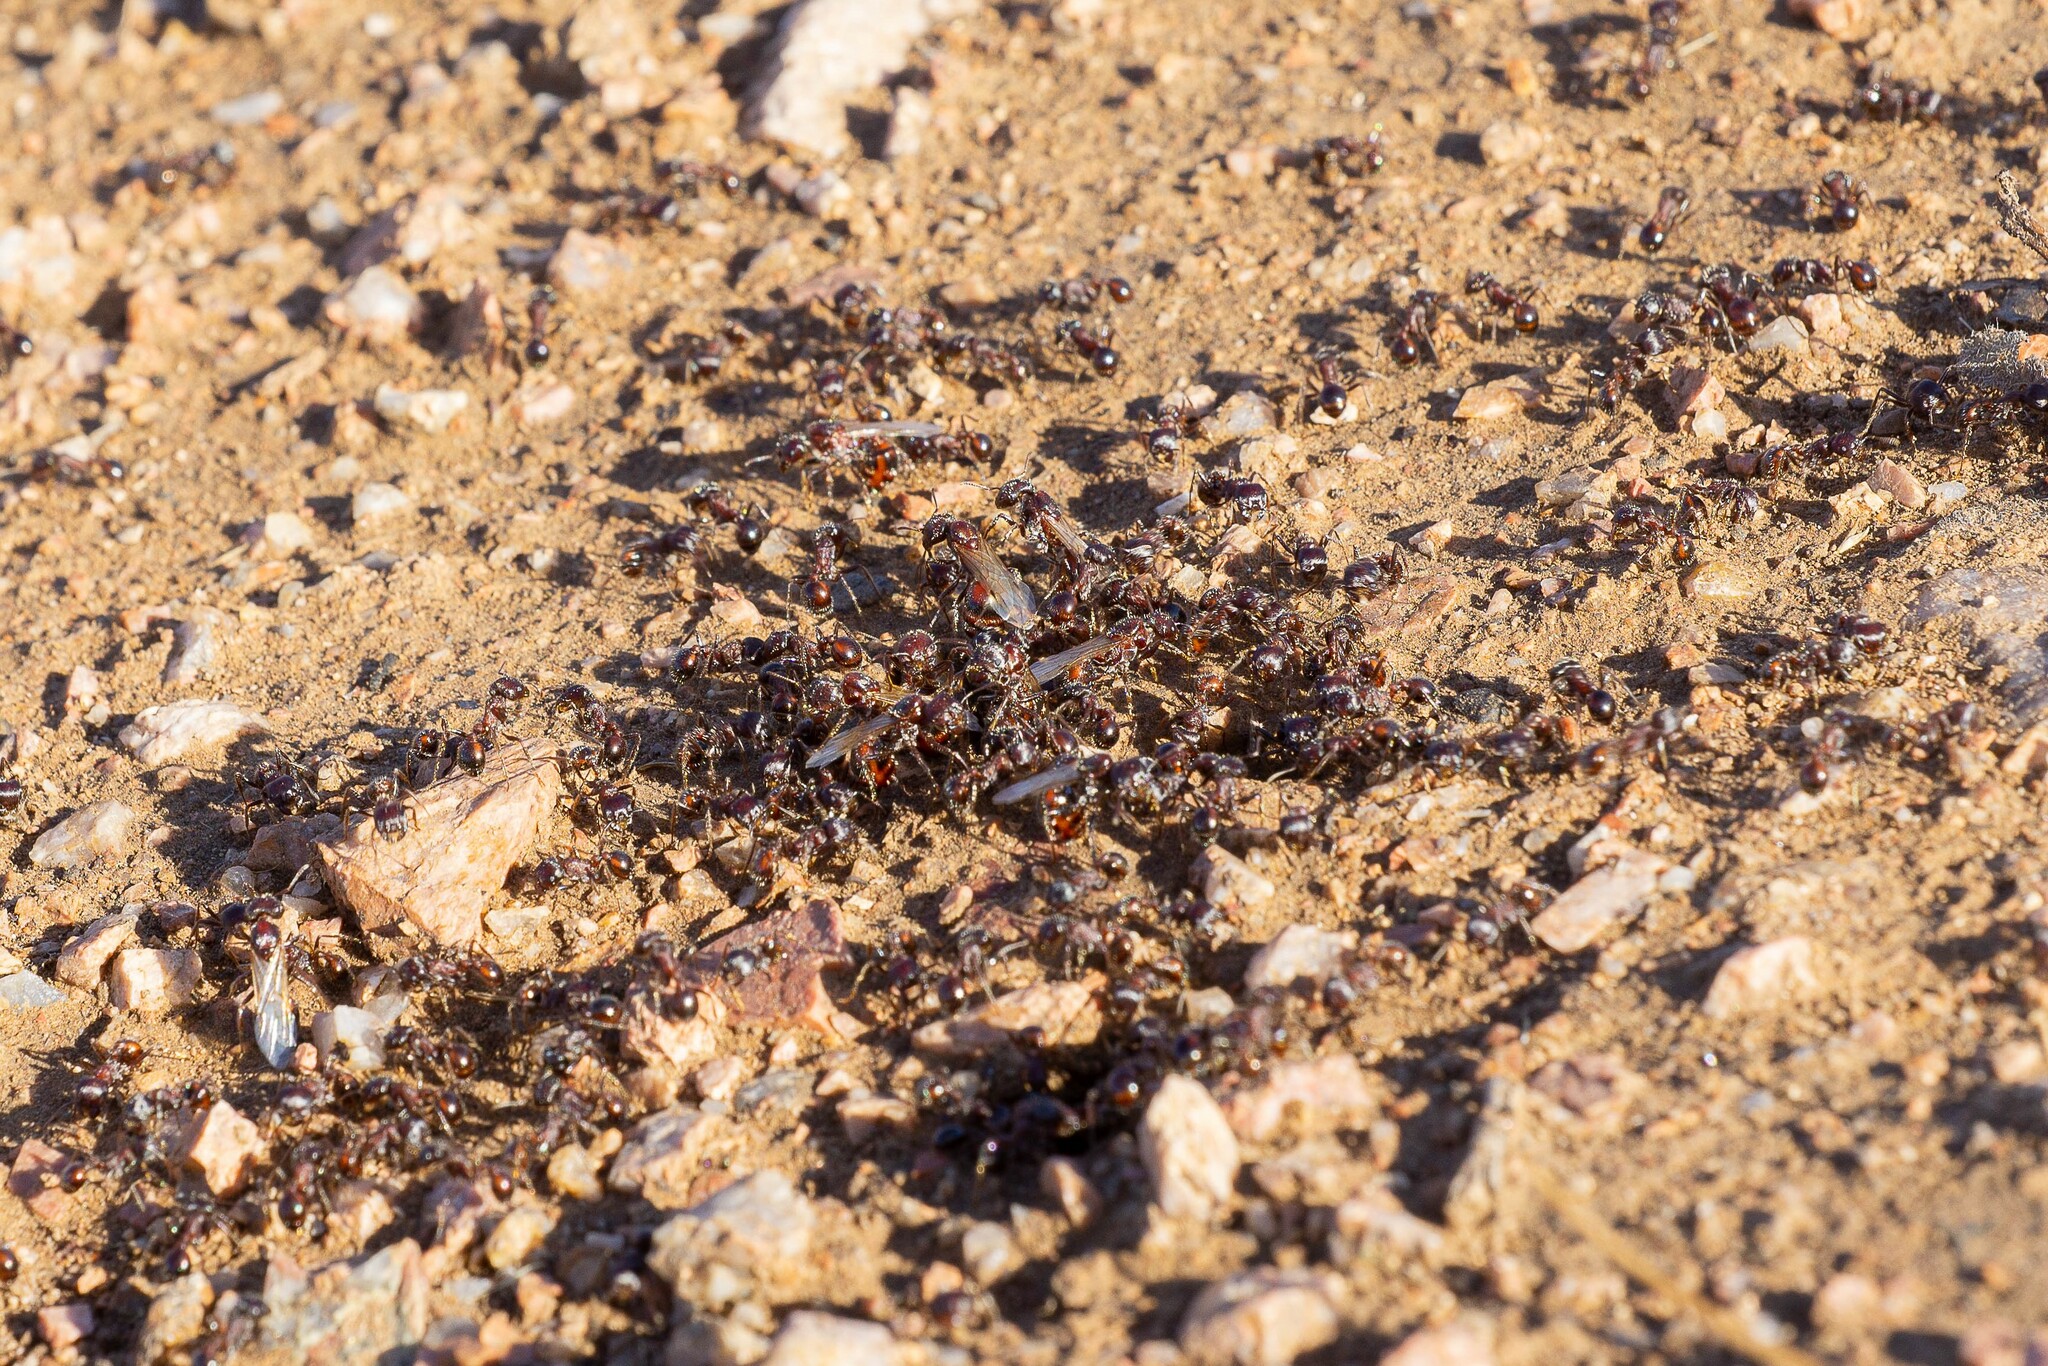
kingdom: Animalia
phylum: Arthropoda
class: Insecta
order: Hymenoptera
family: Formicidae
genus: Pogonomyrmex
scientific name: Pogonomyrmex rugosus
